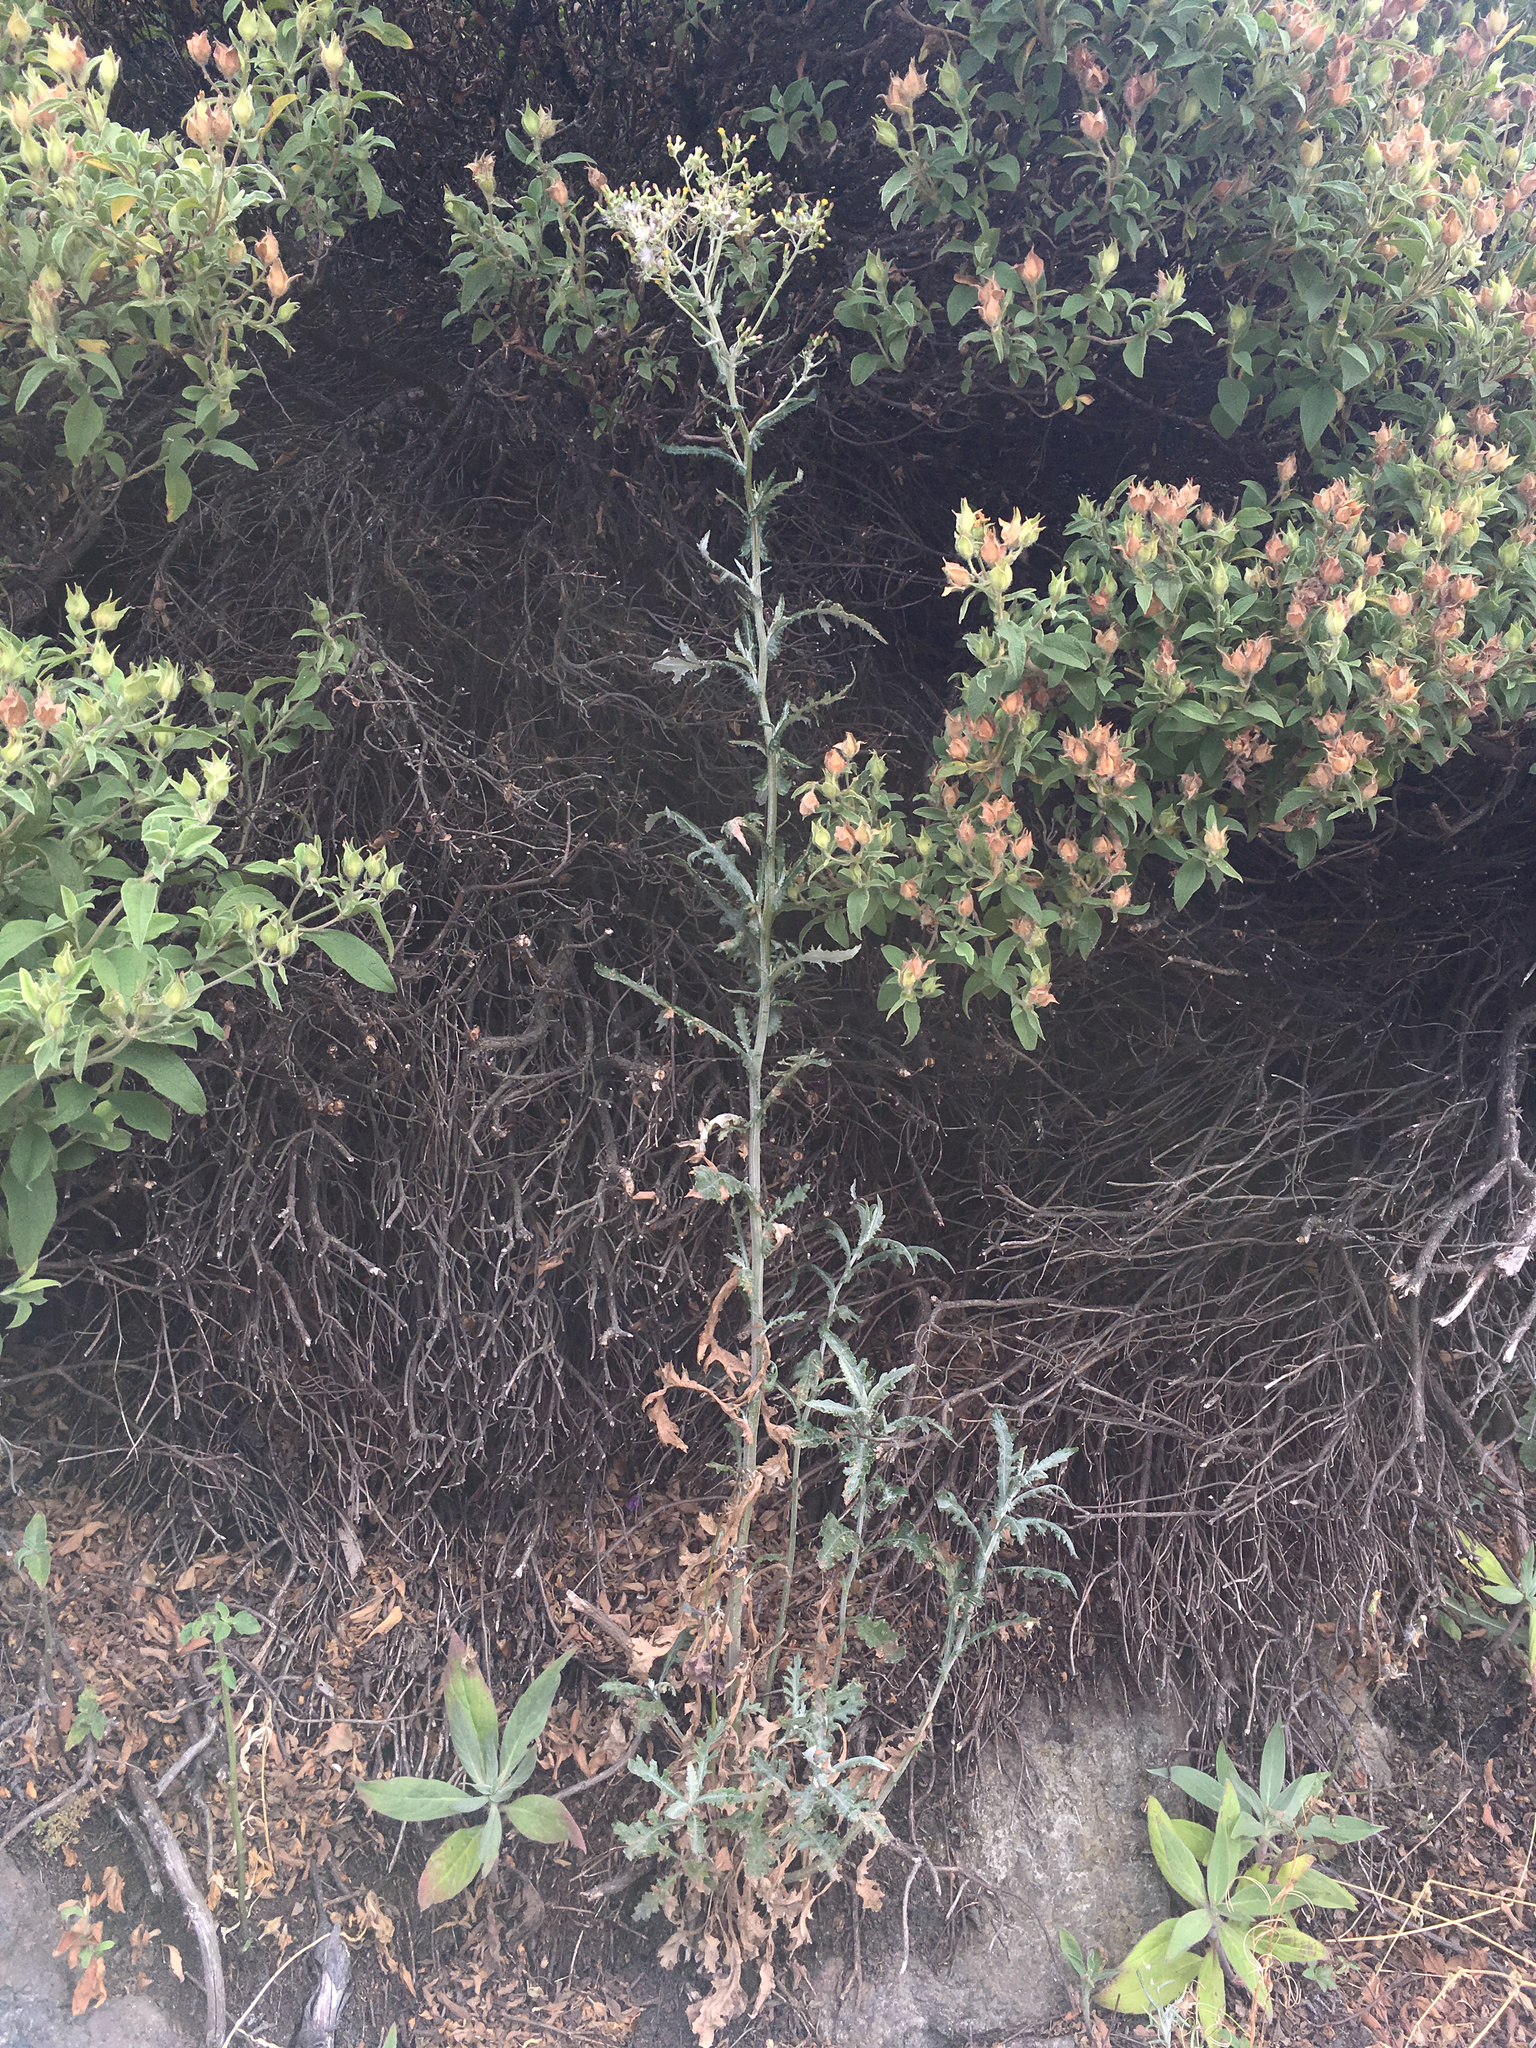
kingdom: Plantae
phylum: Tracheophyta
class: Magnoliopsida
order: Asterales
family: Asteraceae
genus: Senecio
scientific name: Senecio glomeratus
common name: Cutleaf burnweed
